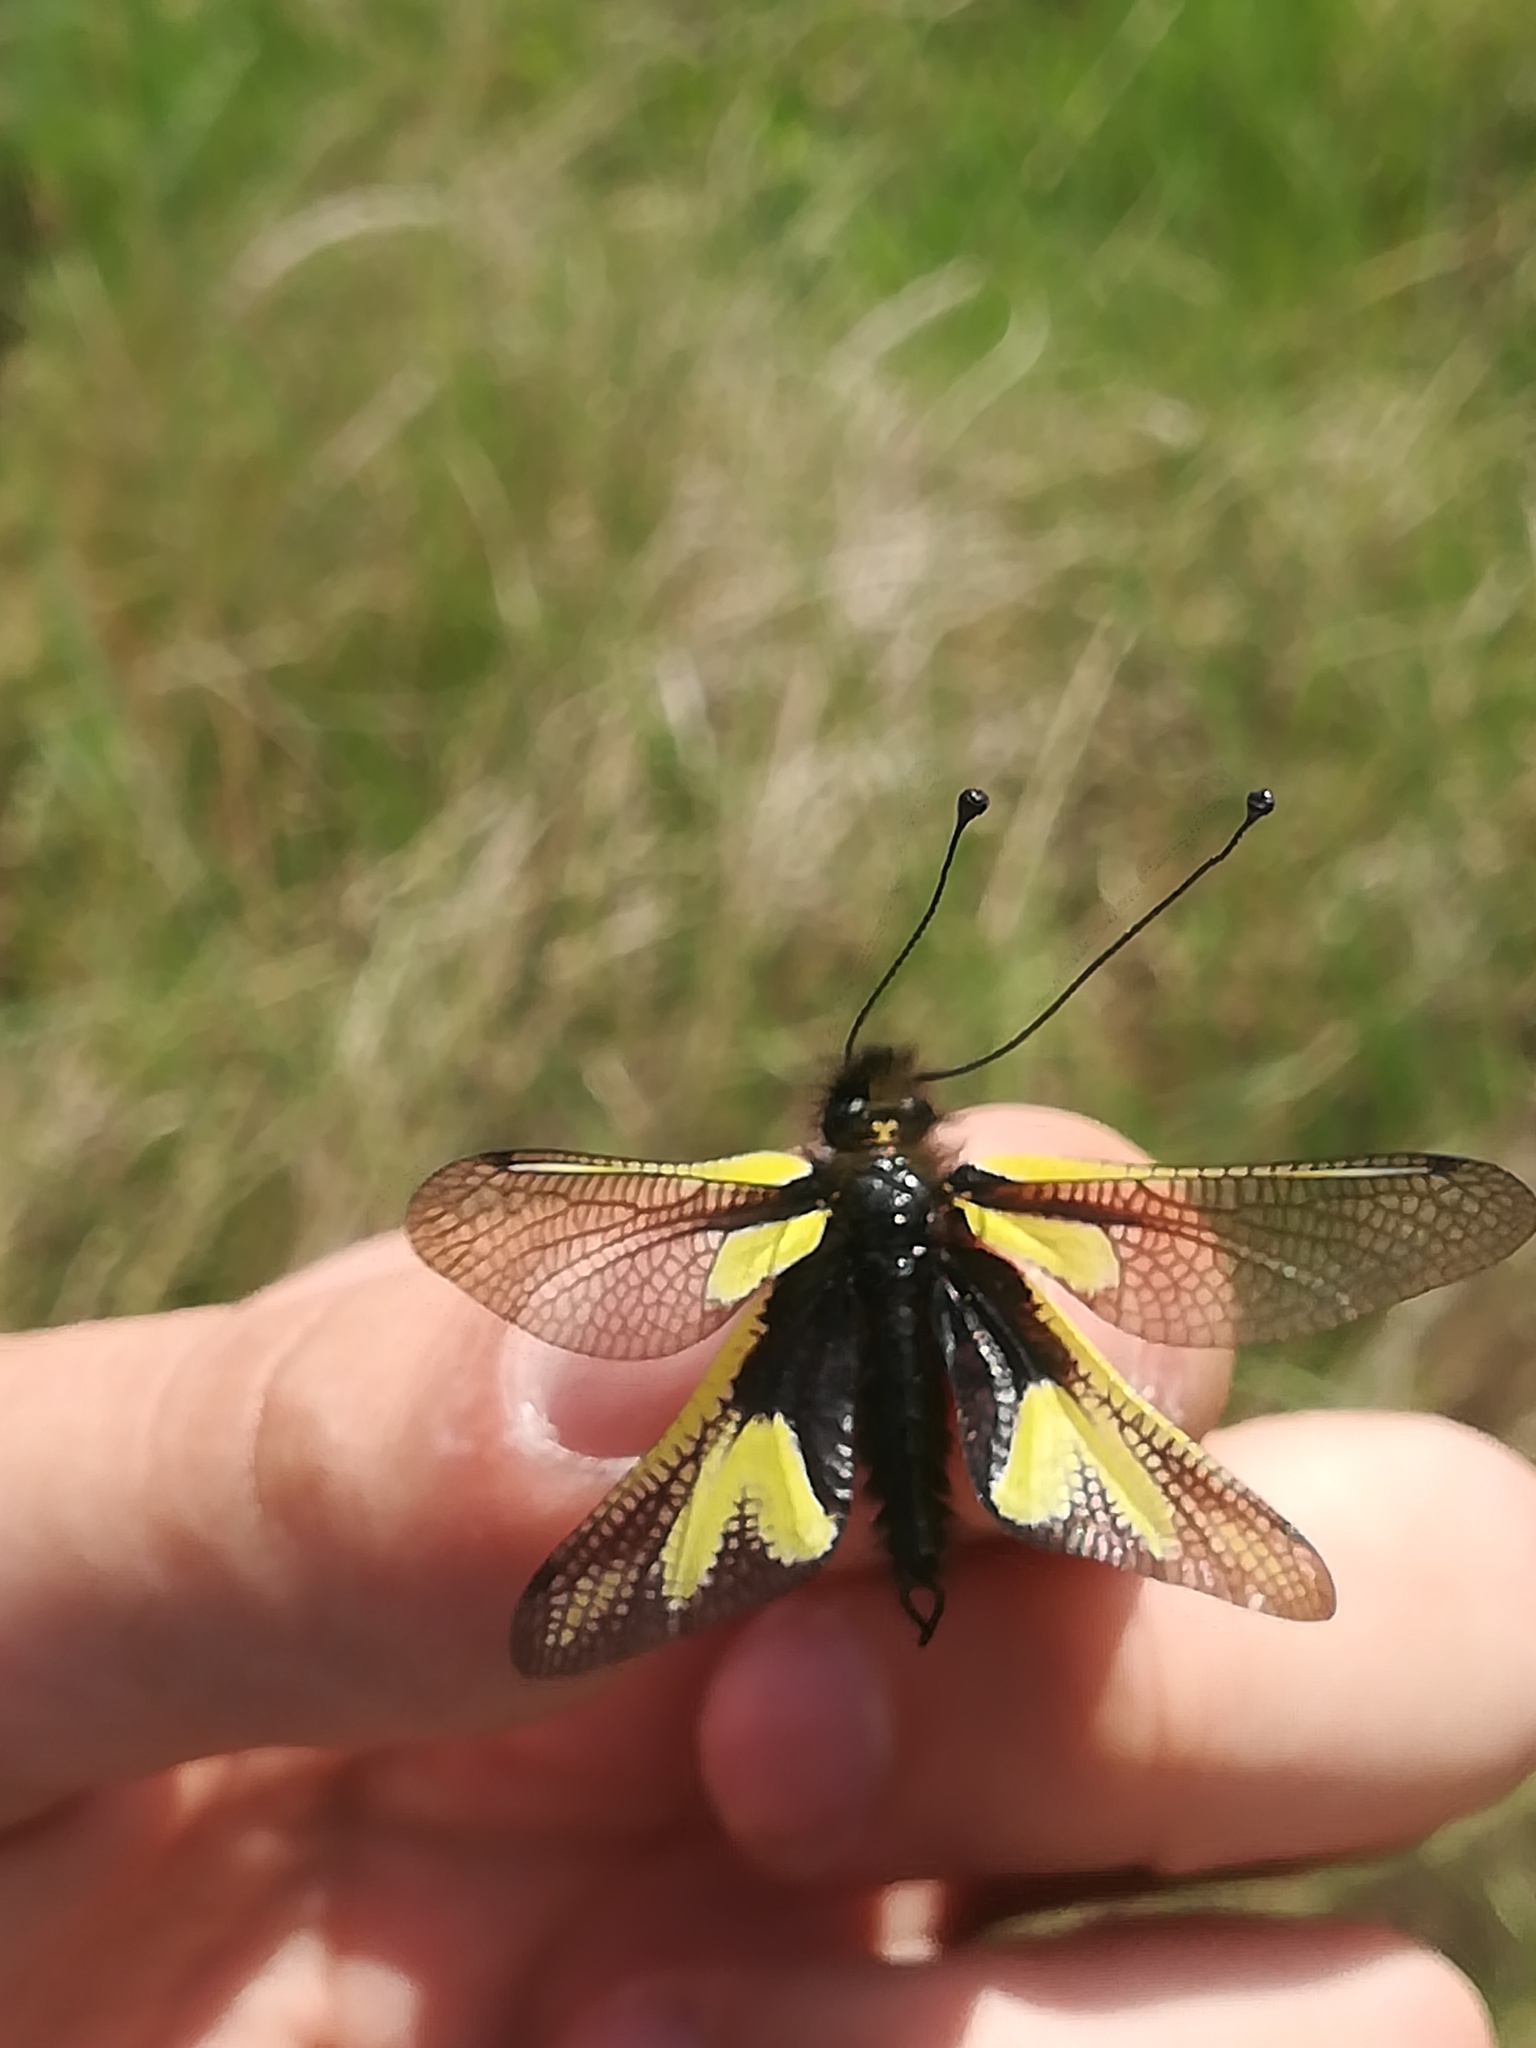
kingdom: Animalia
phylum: Arthropoda
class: Insecta
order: Neuroptera
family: Ascalaphidae
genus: Libelloides
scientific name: Libelloides coccajus
